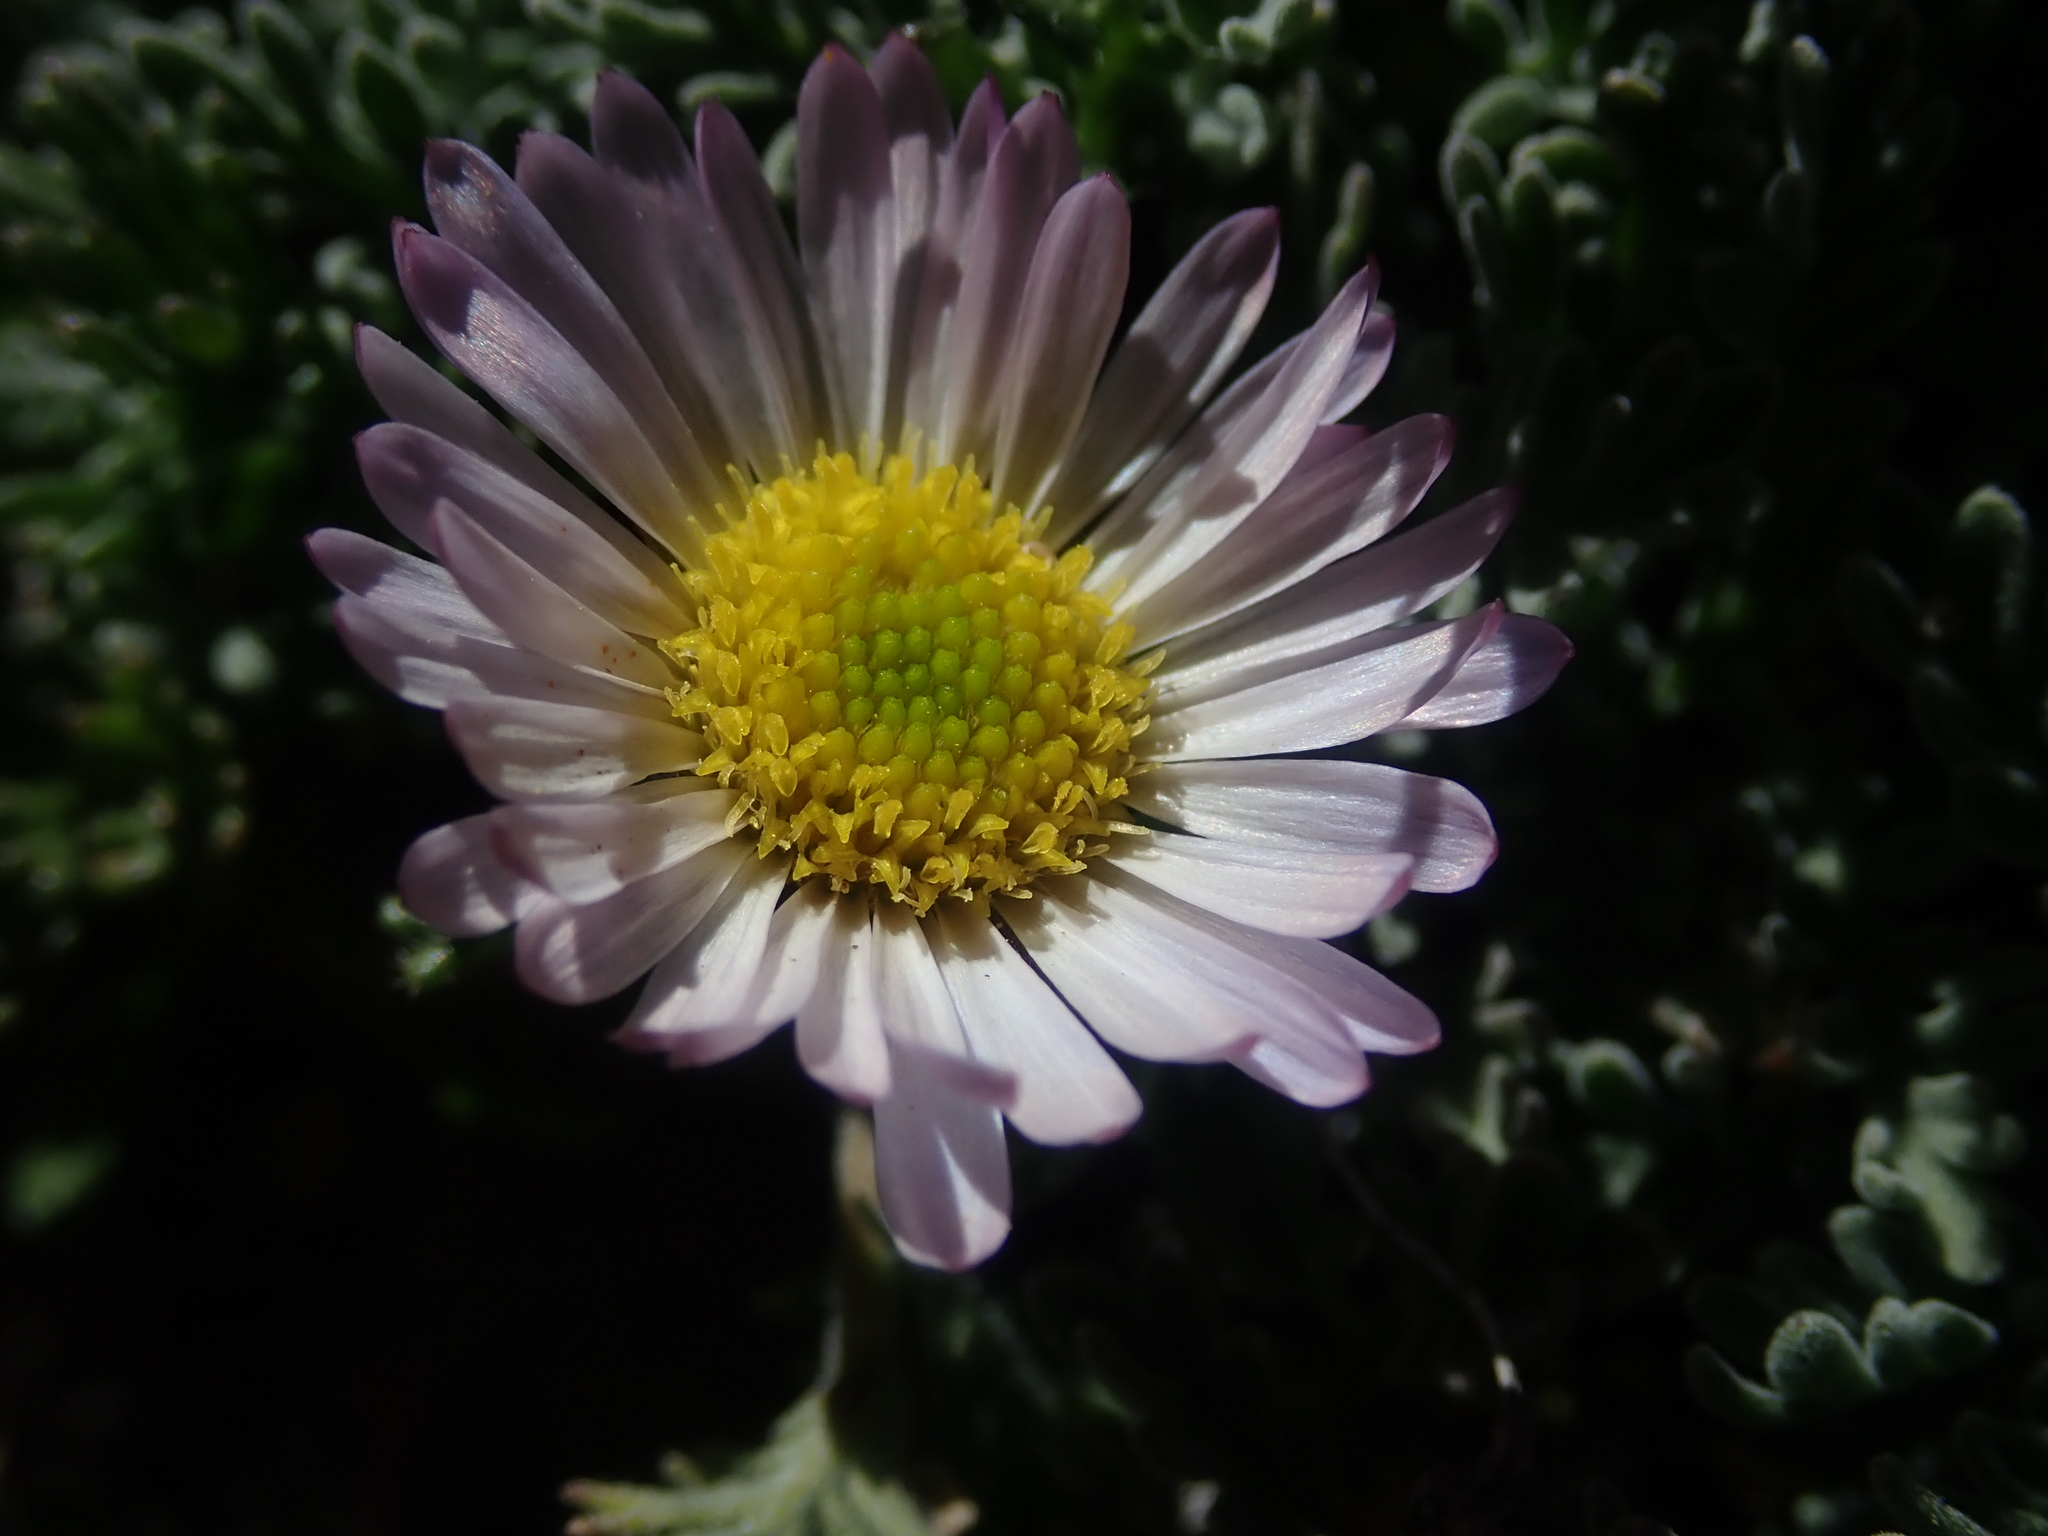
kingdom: Plantae
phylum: Tracheophyta
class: Magnoliopsida
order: Asterales
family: Asteraceae
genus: Erigeron
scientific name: Erigeron compositus
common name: Dwarf mountain fleabane
